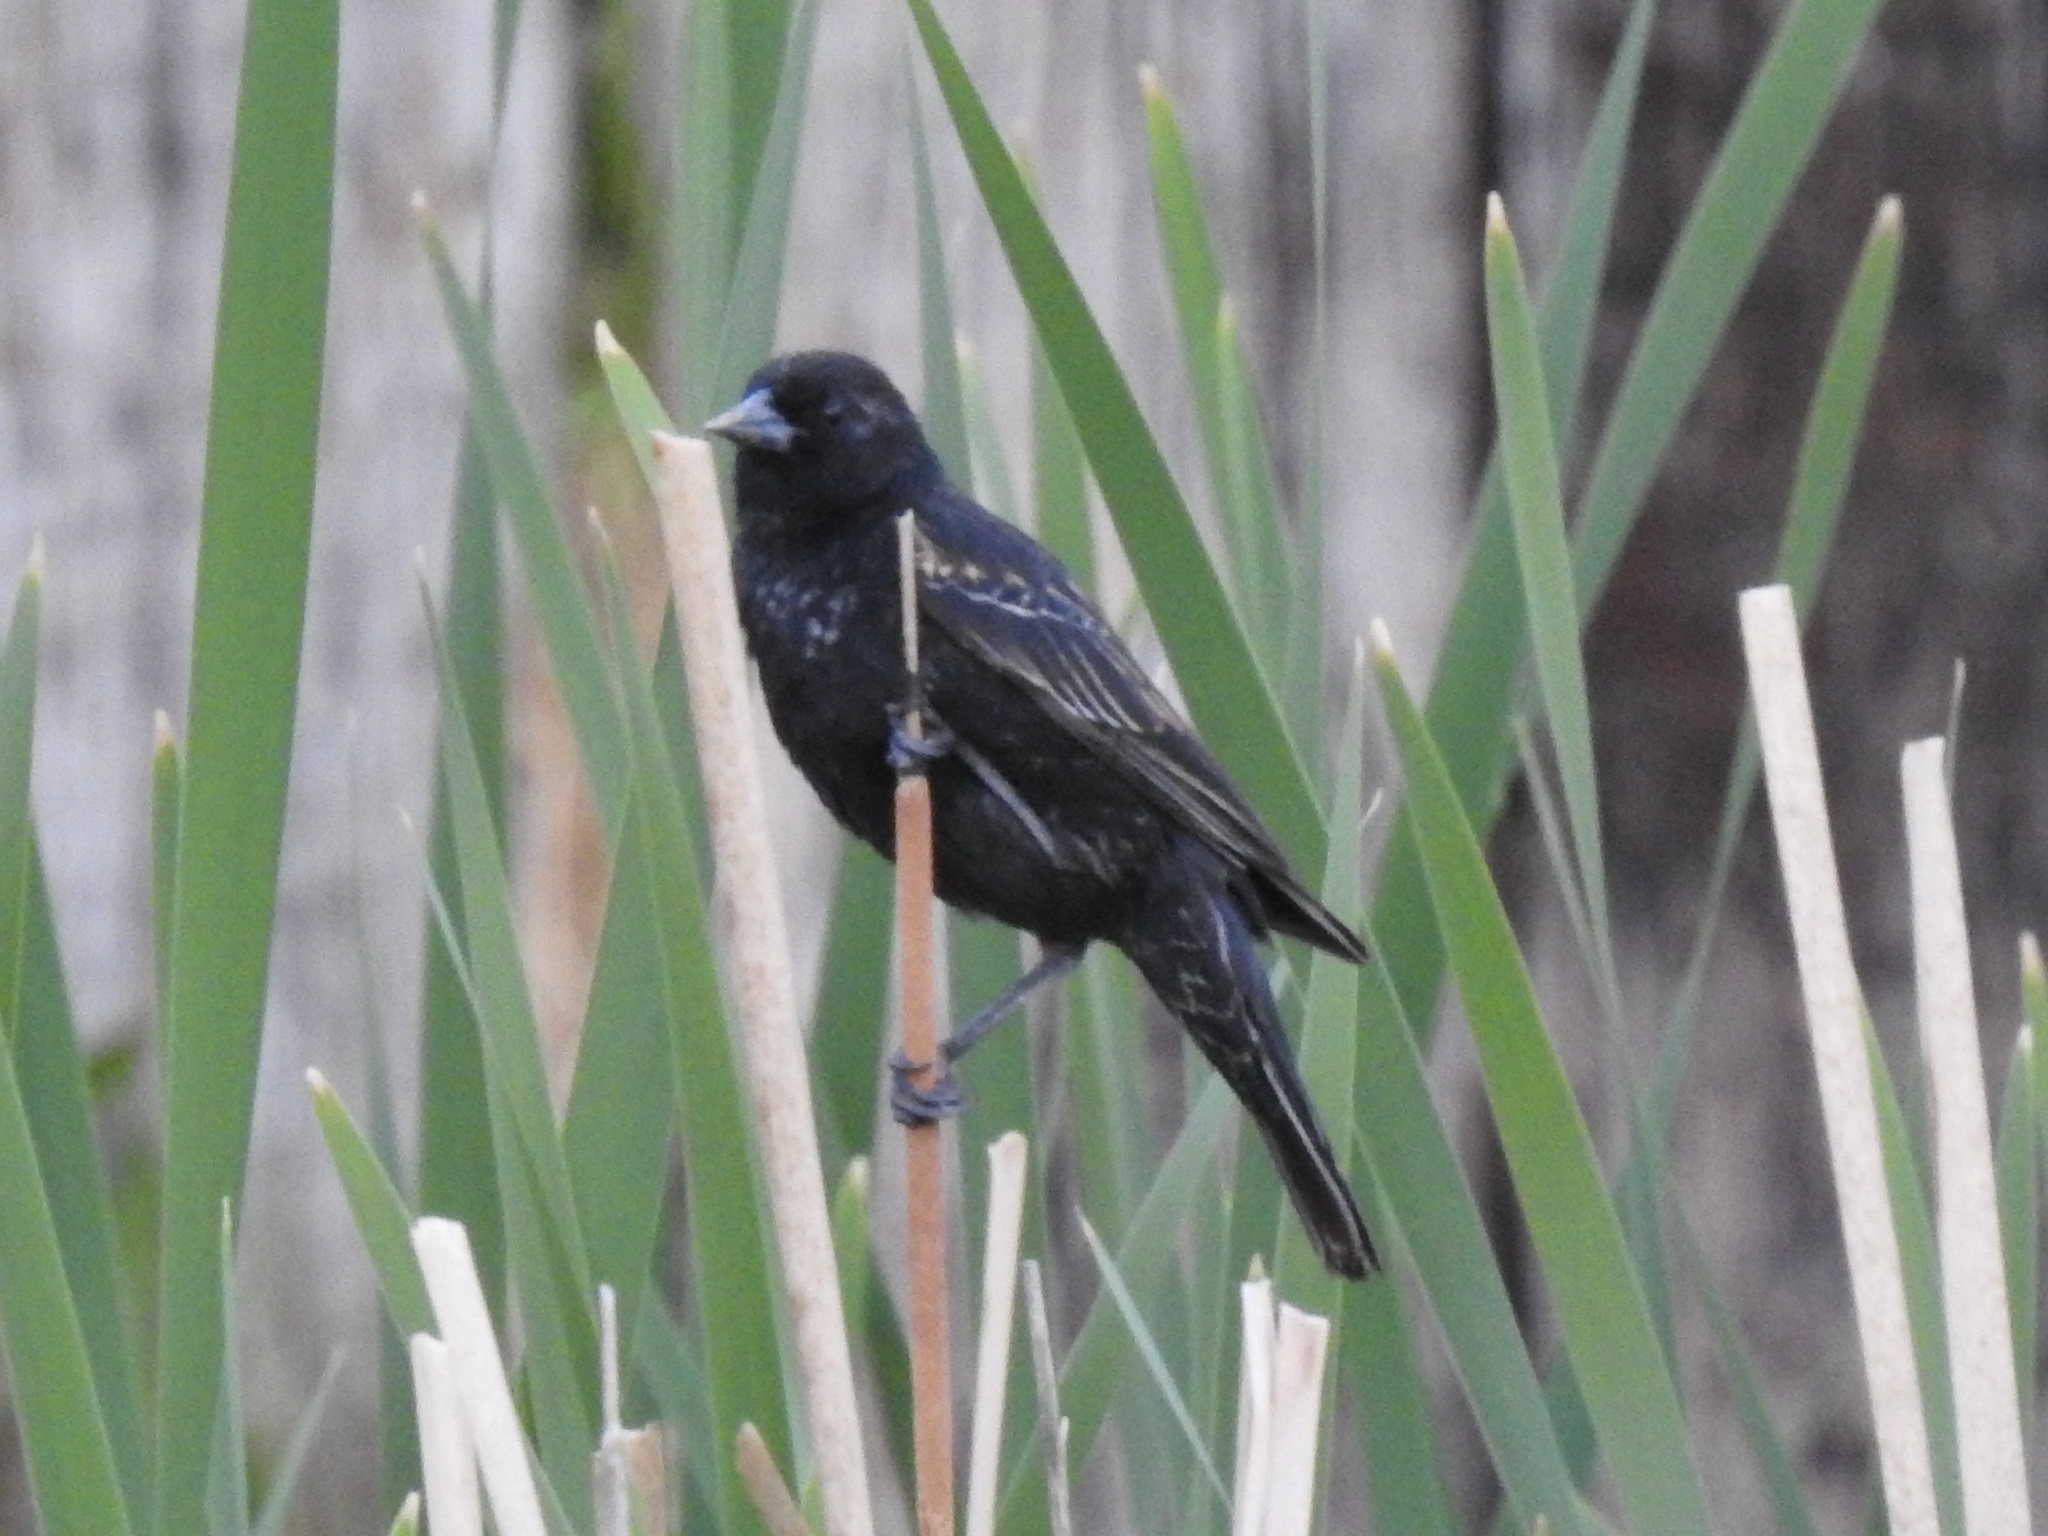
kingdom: Animalia
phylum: Chordata
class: Aves
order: Passeriformes
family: Icteridae
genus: Agelaius
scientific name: Agelaius phoeniceus
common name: Red-winged blackbird
